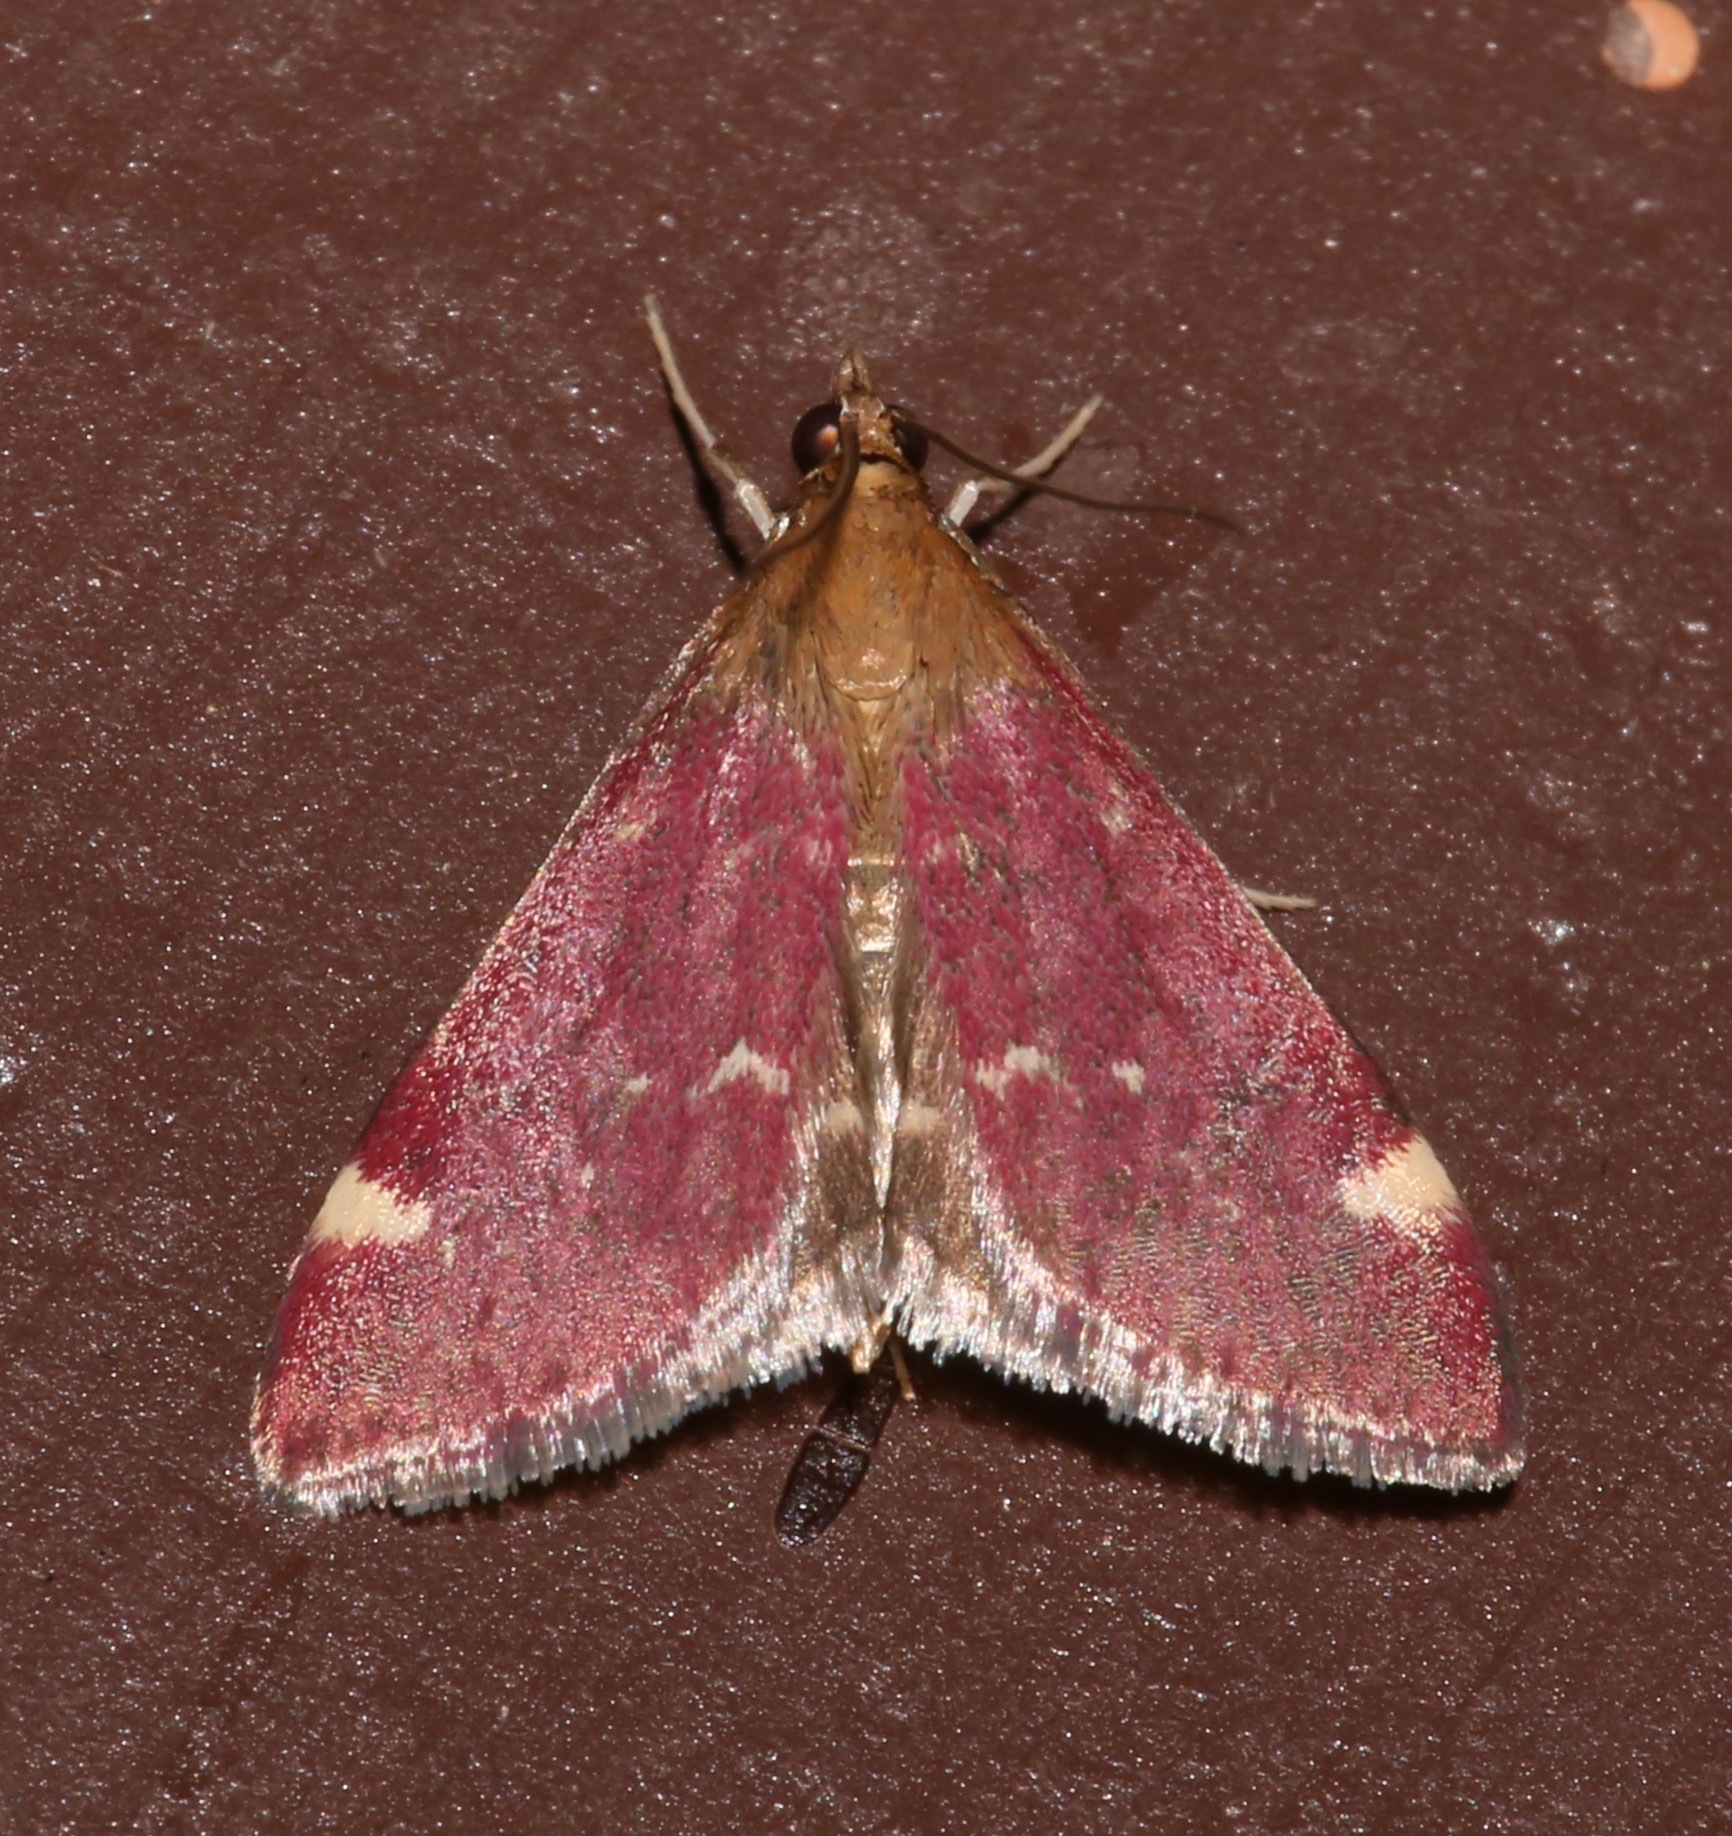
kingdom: Animalia
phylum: Arthropoda
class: Insecta
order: Lepidoptera
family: Crambidae
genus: Pyrausta
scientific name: Pyrausta grotei
